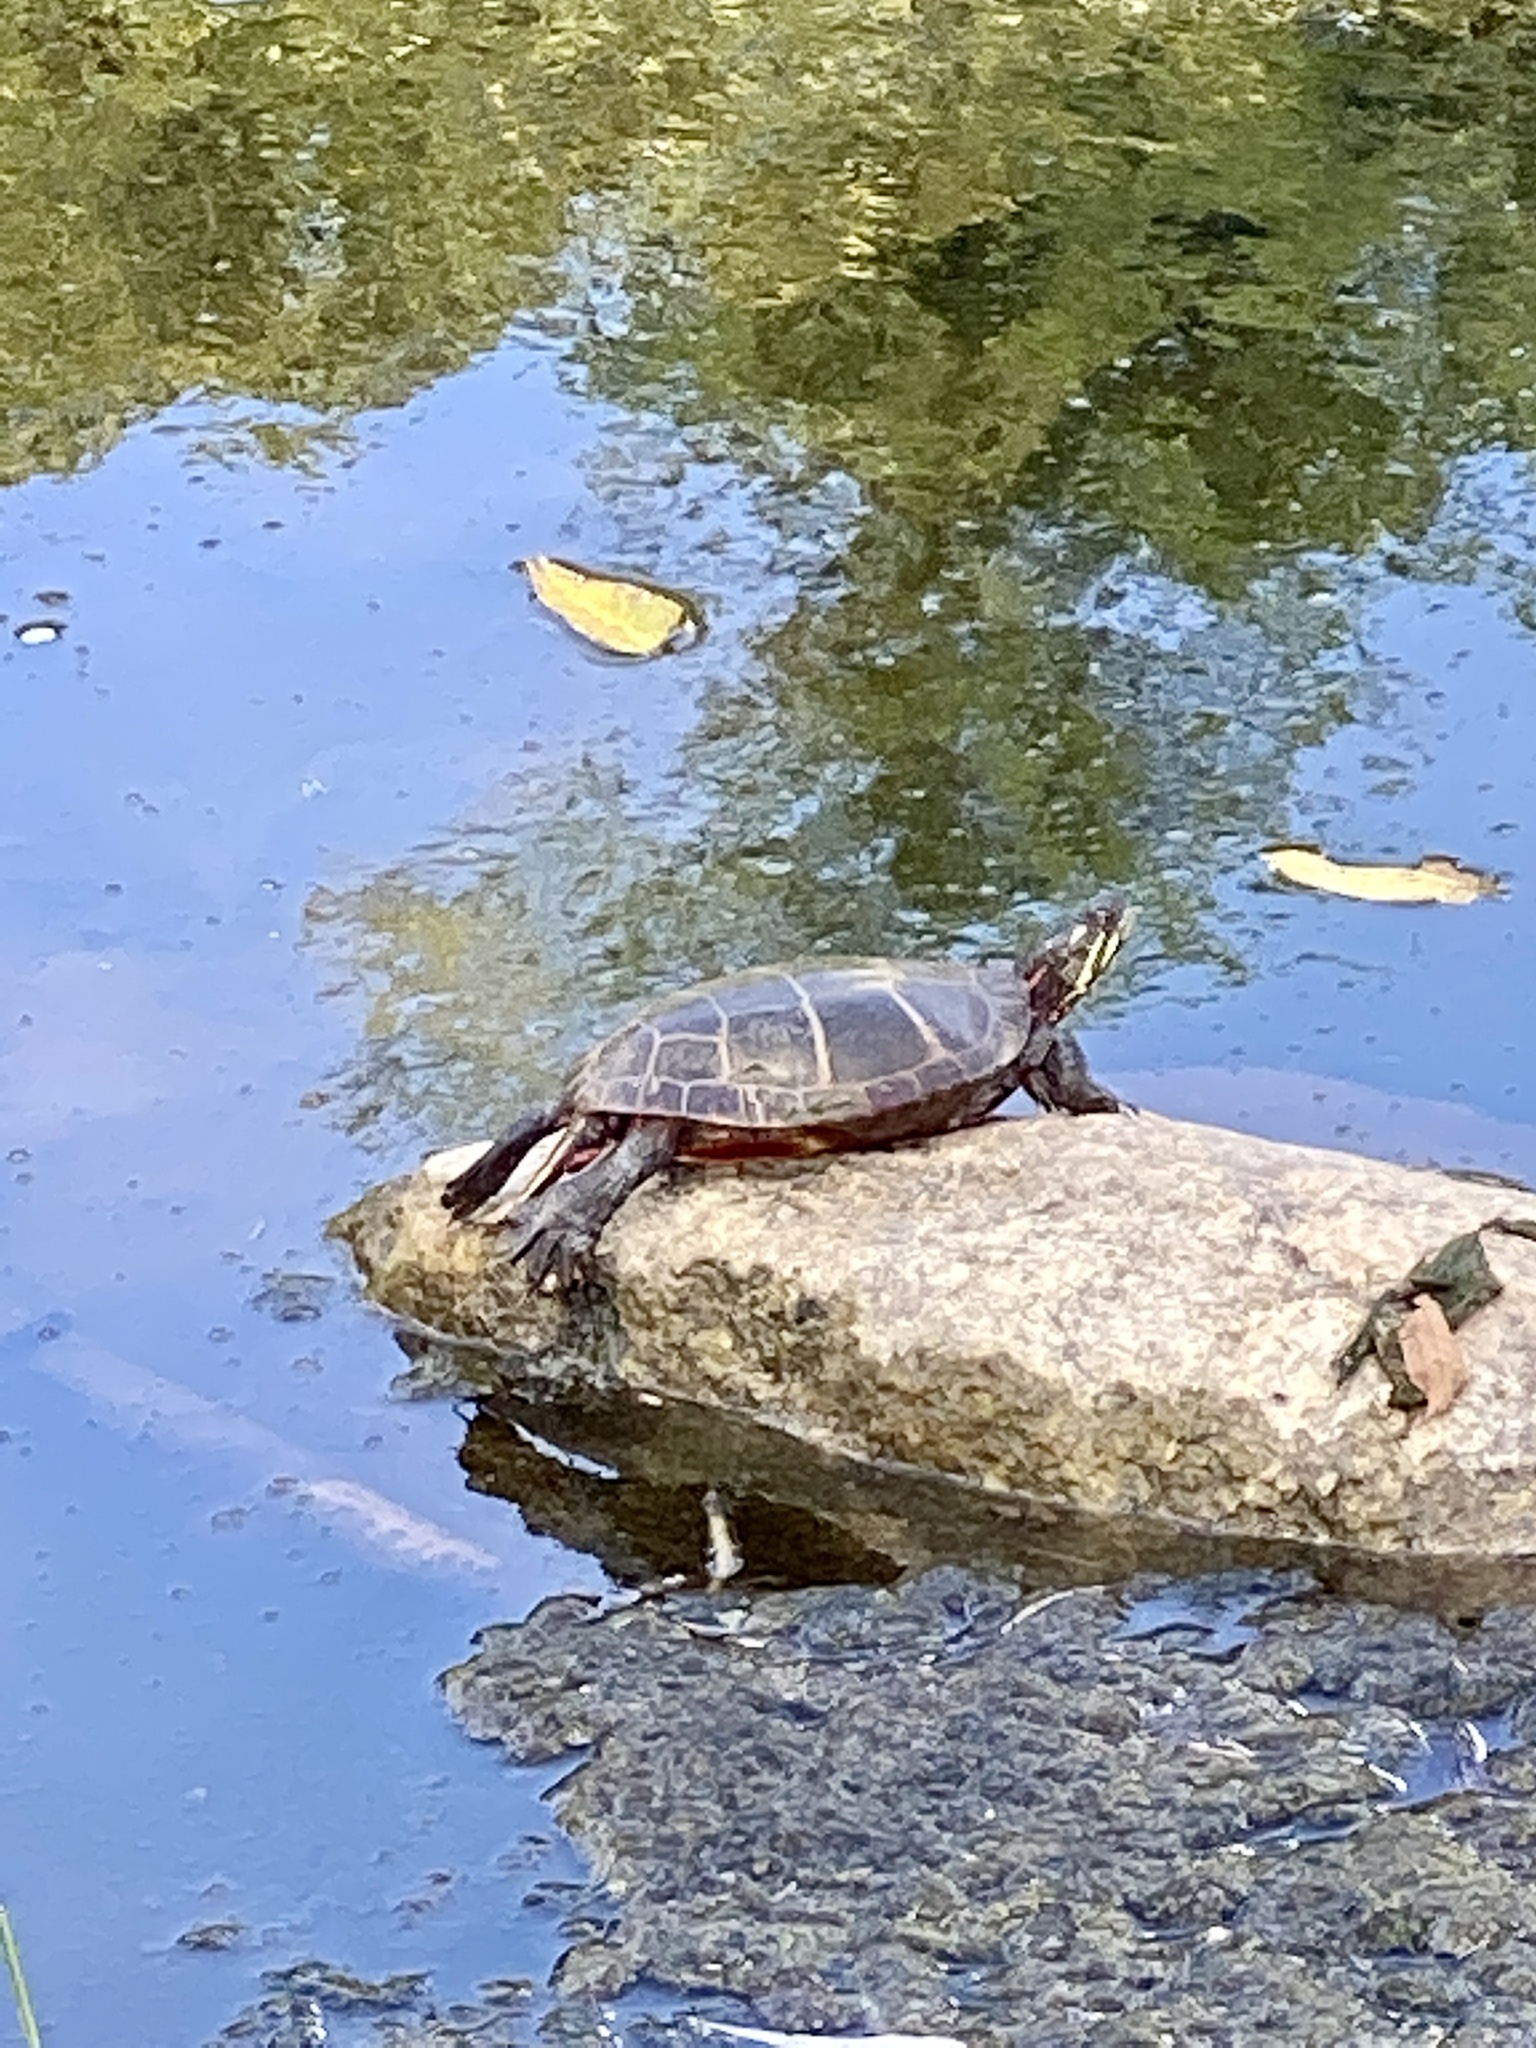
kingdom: Animalia
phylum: Chordata
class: Testudines
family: Emydidae
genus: Chrysemys
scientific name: Chrysemys picta
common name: Painted turtle
